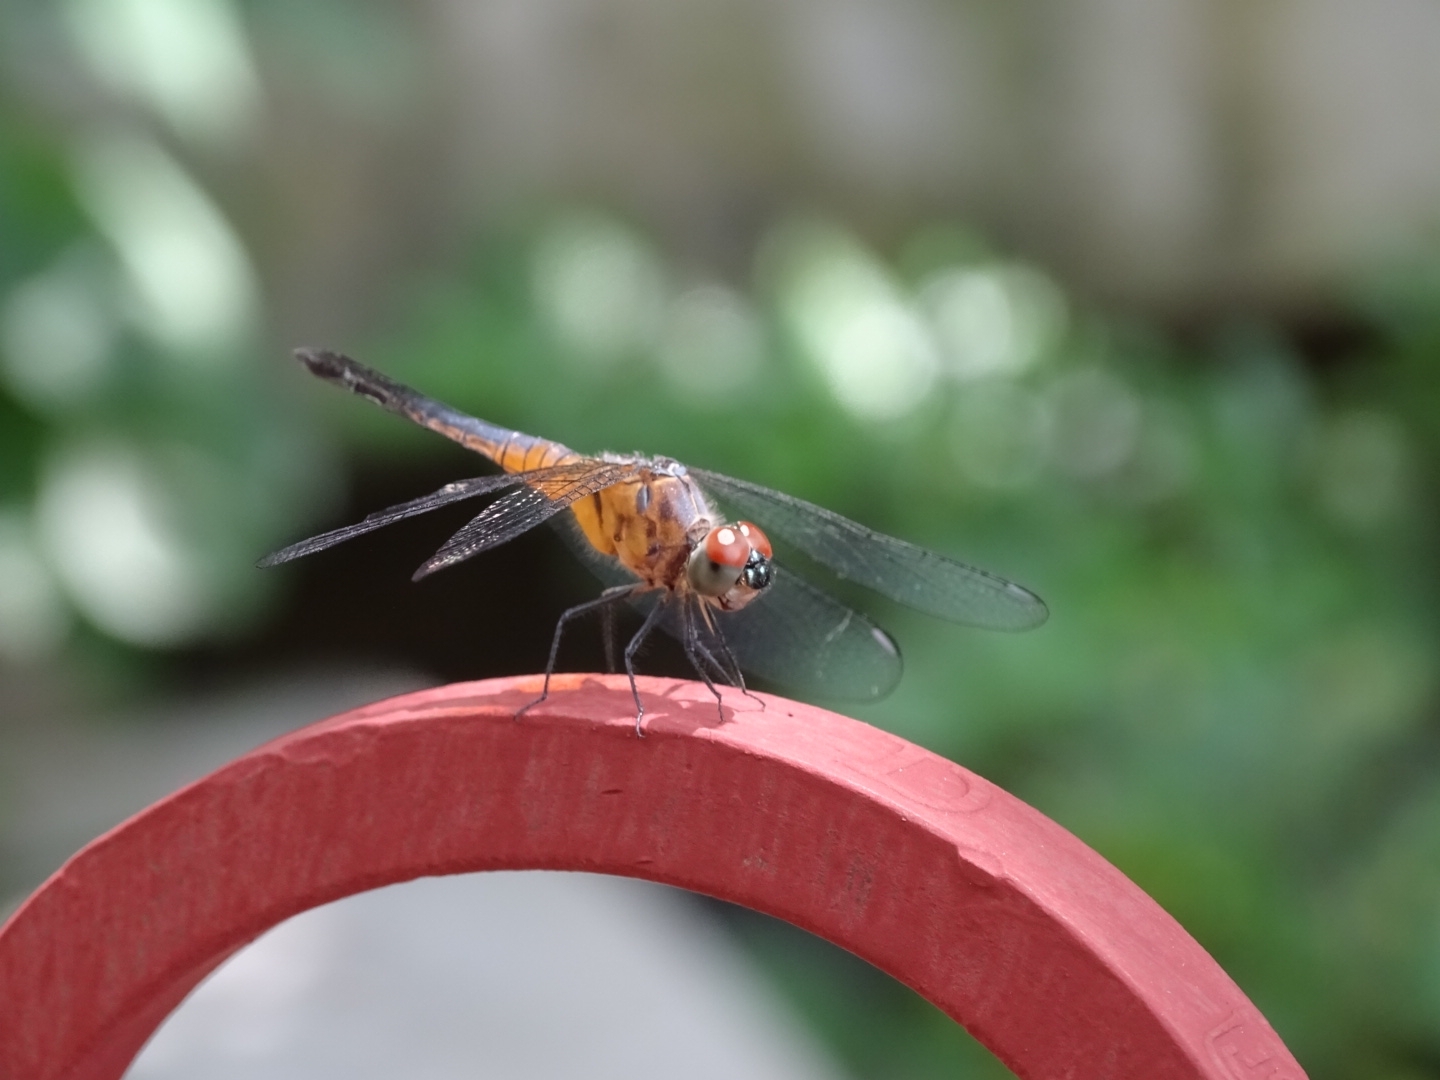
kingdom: Animalia
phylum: Arthropoda
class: Insecta
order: Odonata
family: Libellulidae
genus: Brachydiplax
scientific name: Brachydiplax chalybea
